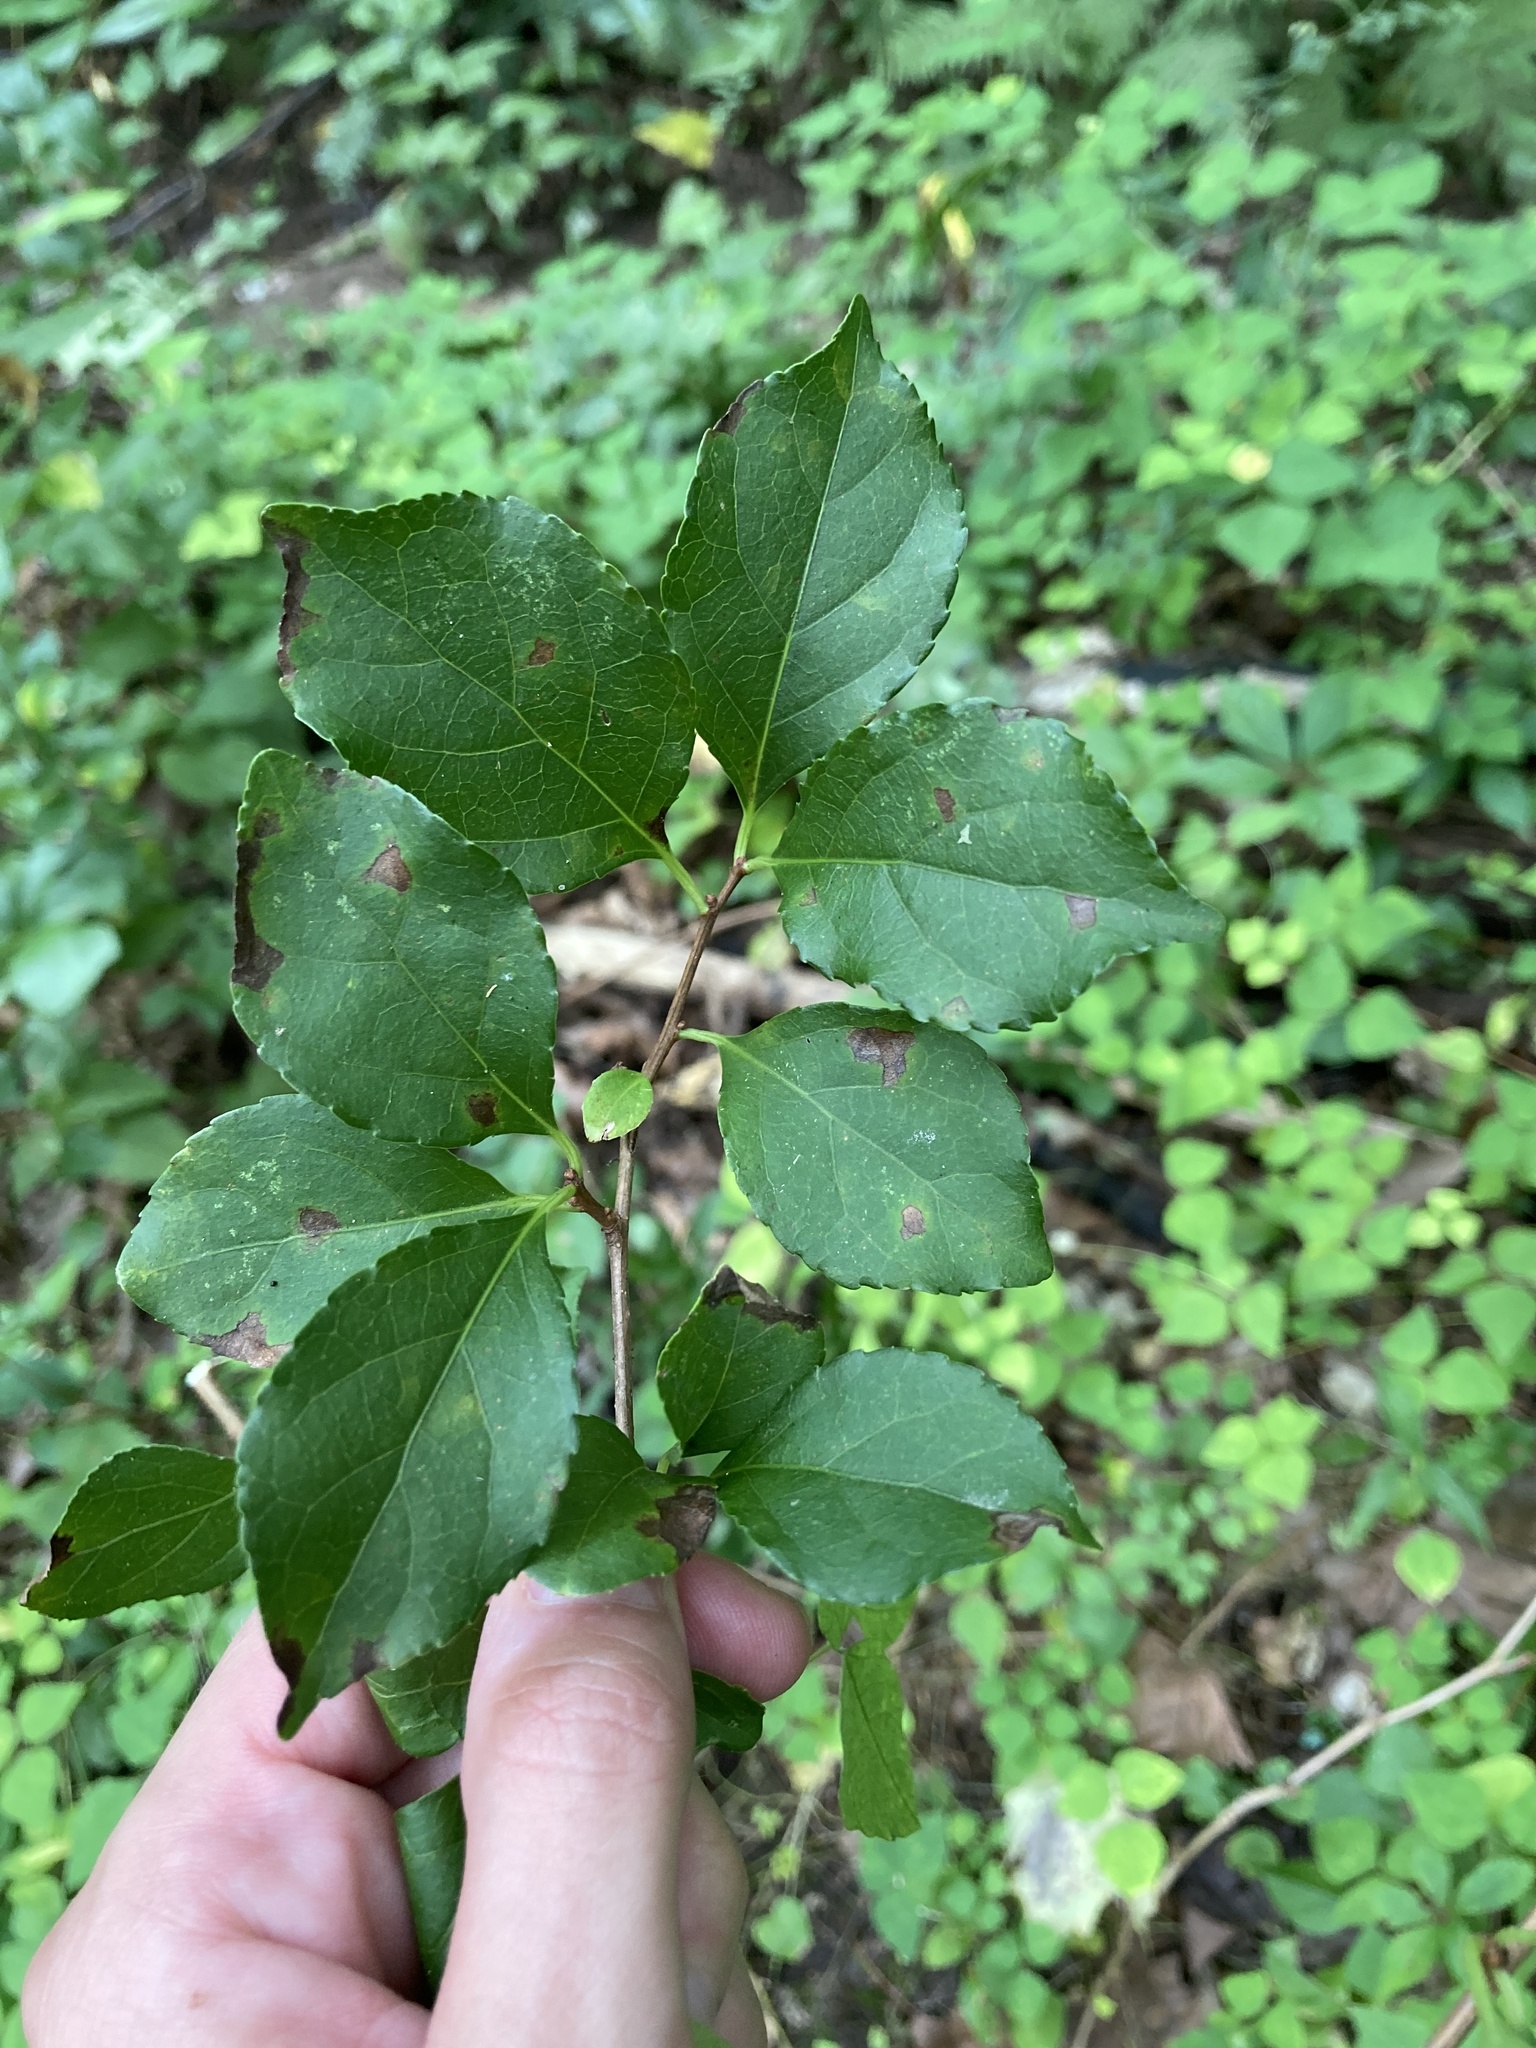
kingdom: Plantae
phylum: Tracheophyta
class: Magnoliopsida
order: Celastrales
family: Celastraceae
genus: Celastrus
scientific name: Celastrus orbiculatus
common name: Oriental bittersweet
